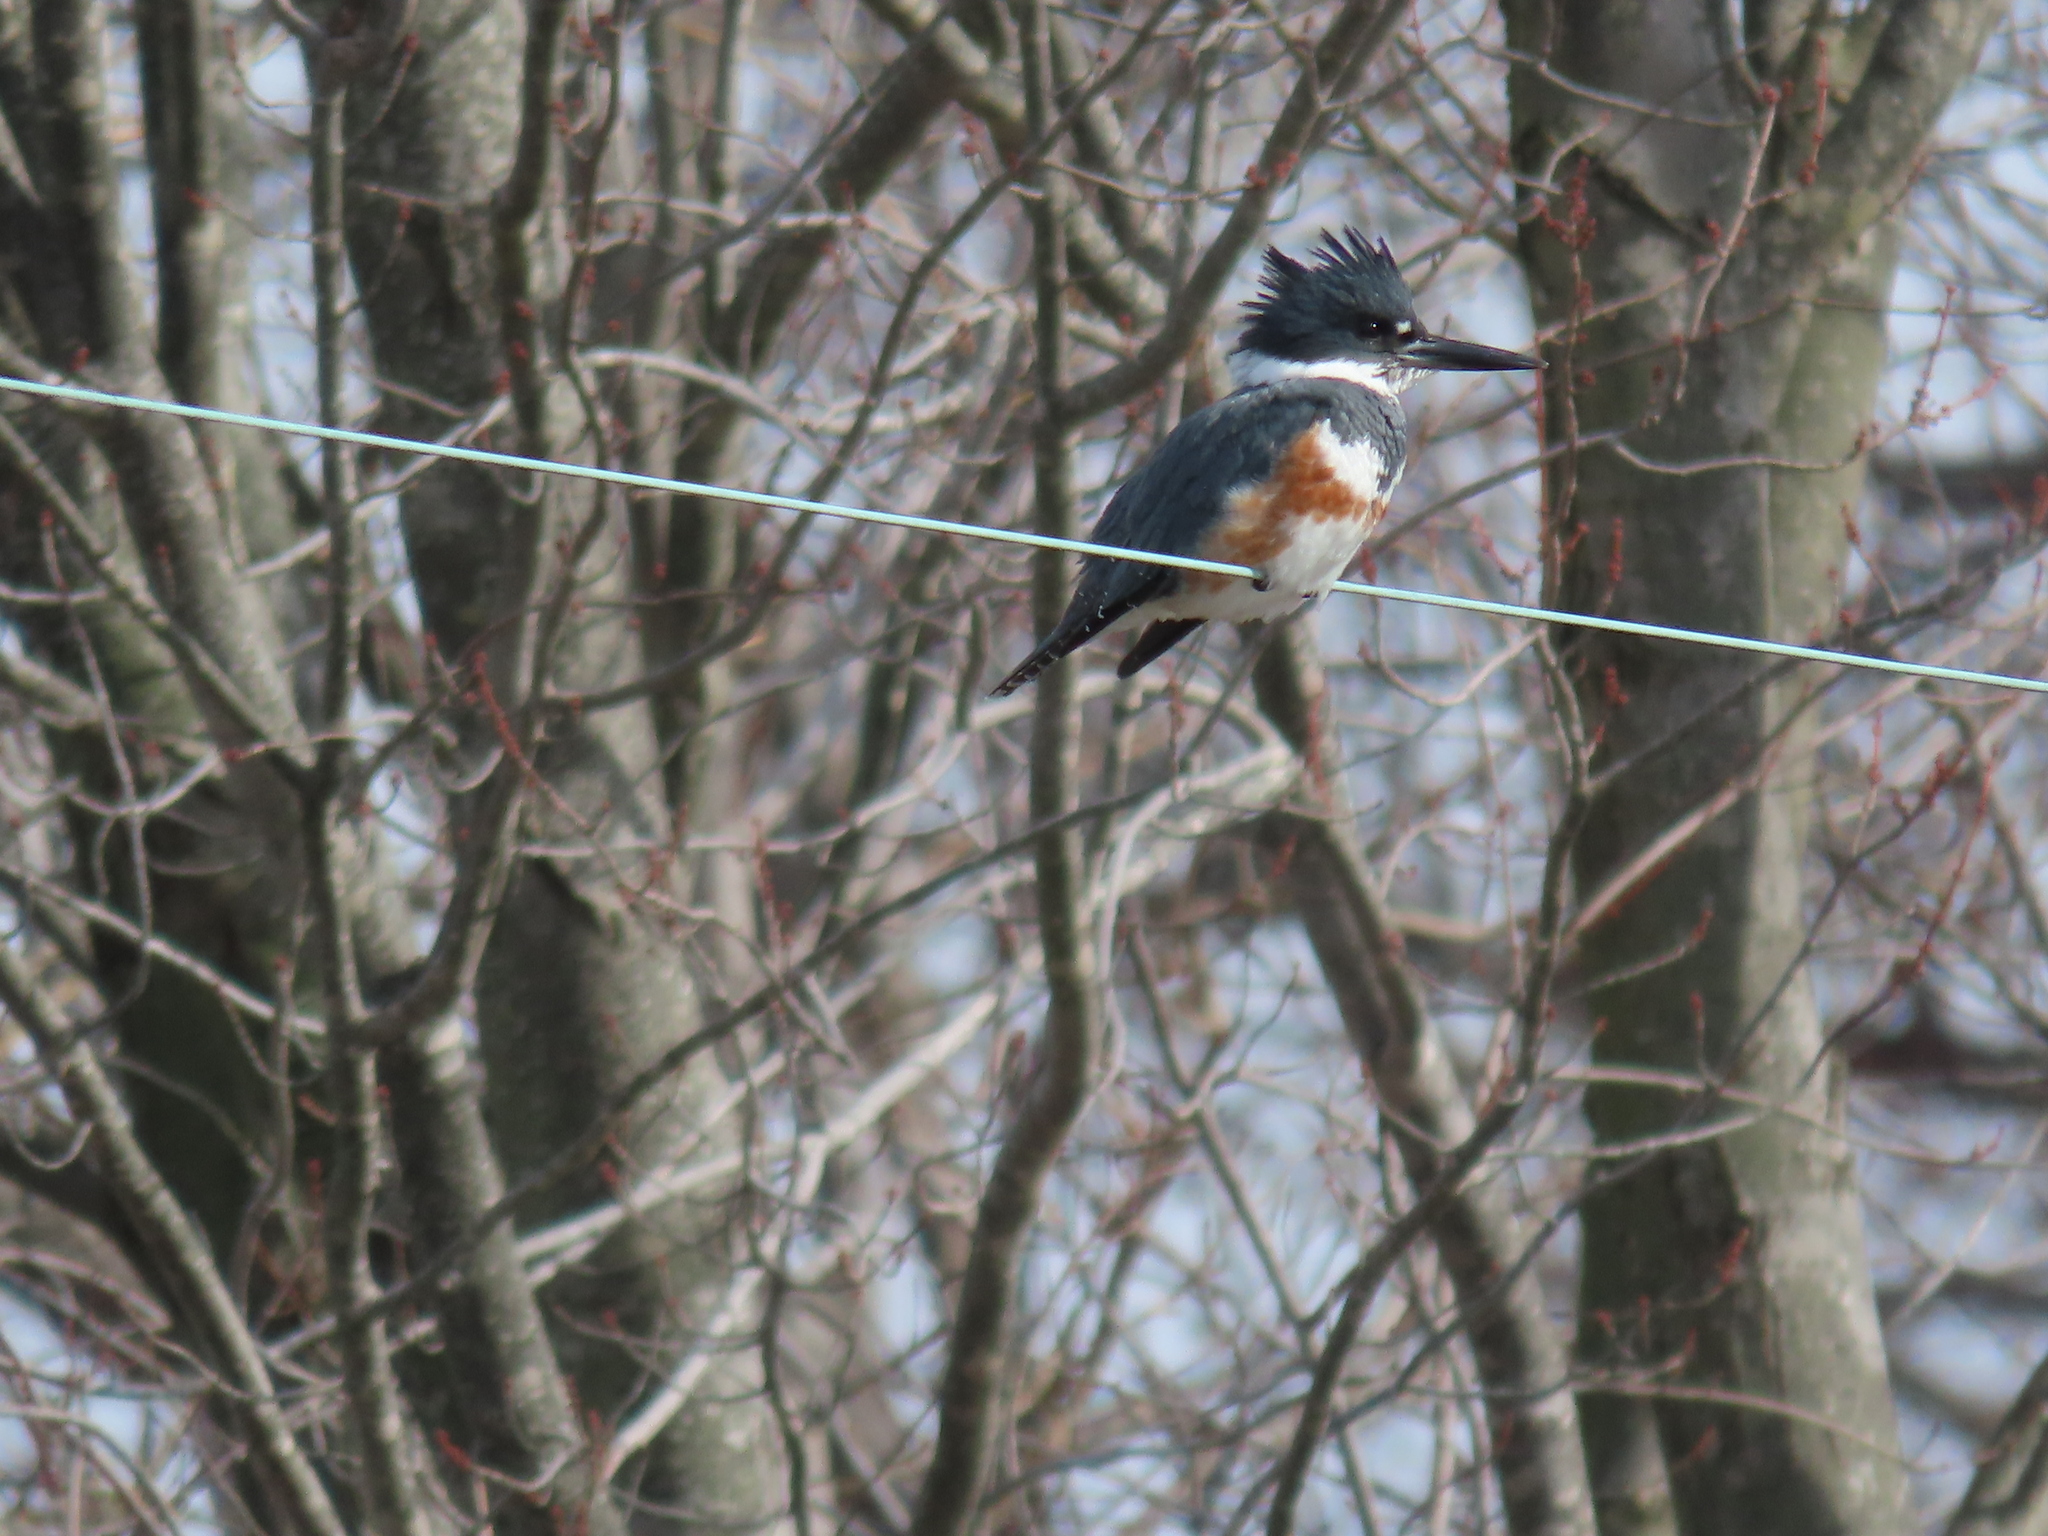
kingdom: Animalia
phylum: Chordata
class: Aves
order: Coraciiformes
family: Alcedinidae
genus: Megaceryle
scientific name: Megaceryle alcyon
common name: Belted kingfisher
